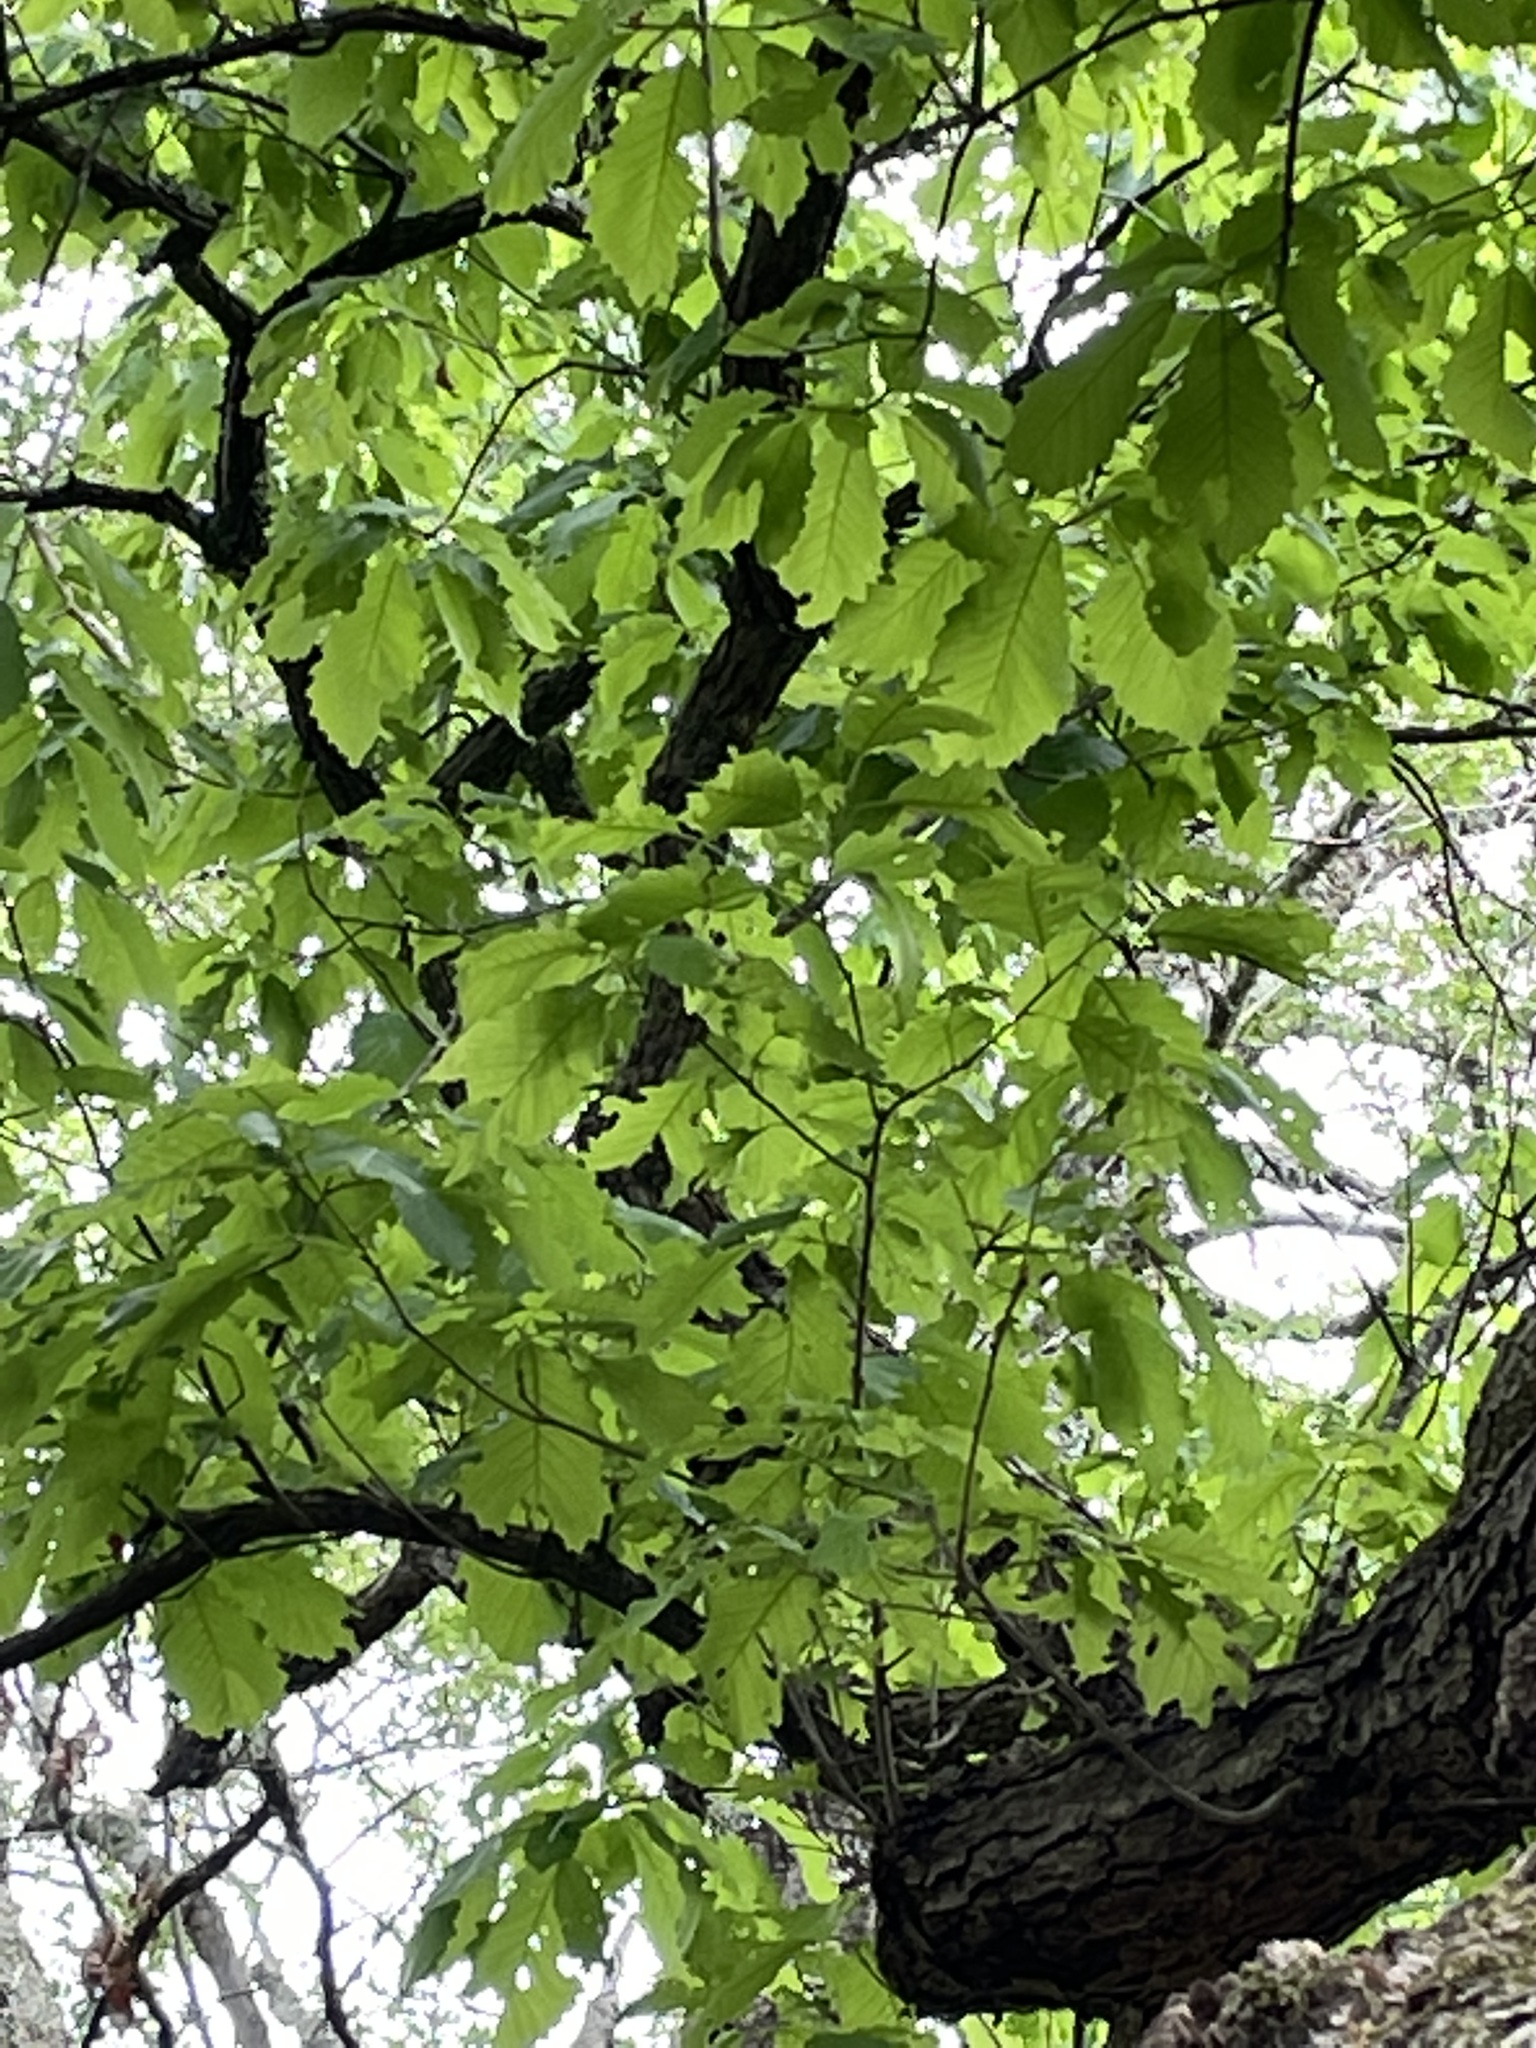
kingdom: Plantae
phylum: Tracheophyta
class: Magnoliopsida
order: Fagales
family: Fagaceae
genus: Quercus
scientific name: Quercus muehlenbergii
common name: Chinkapin oak
